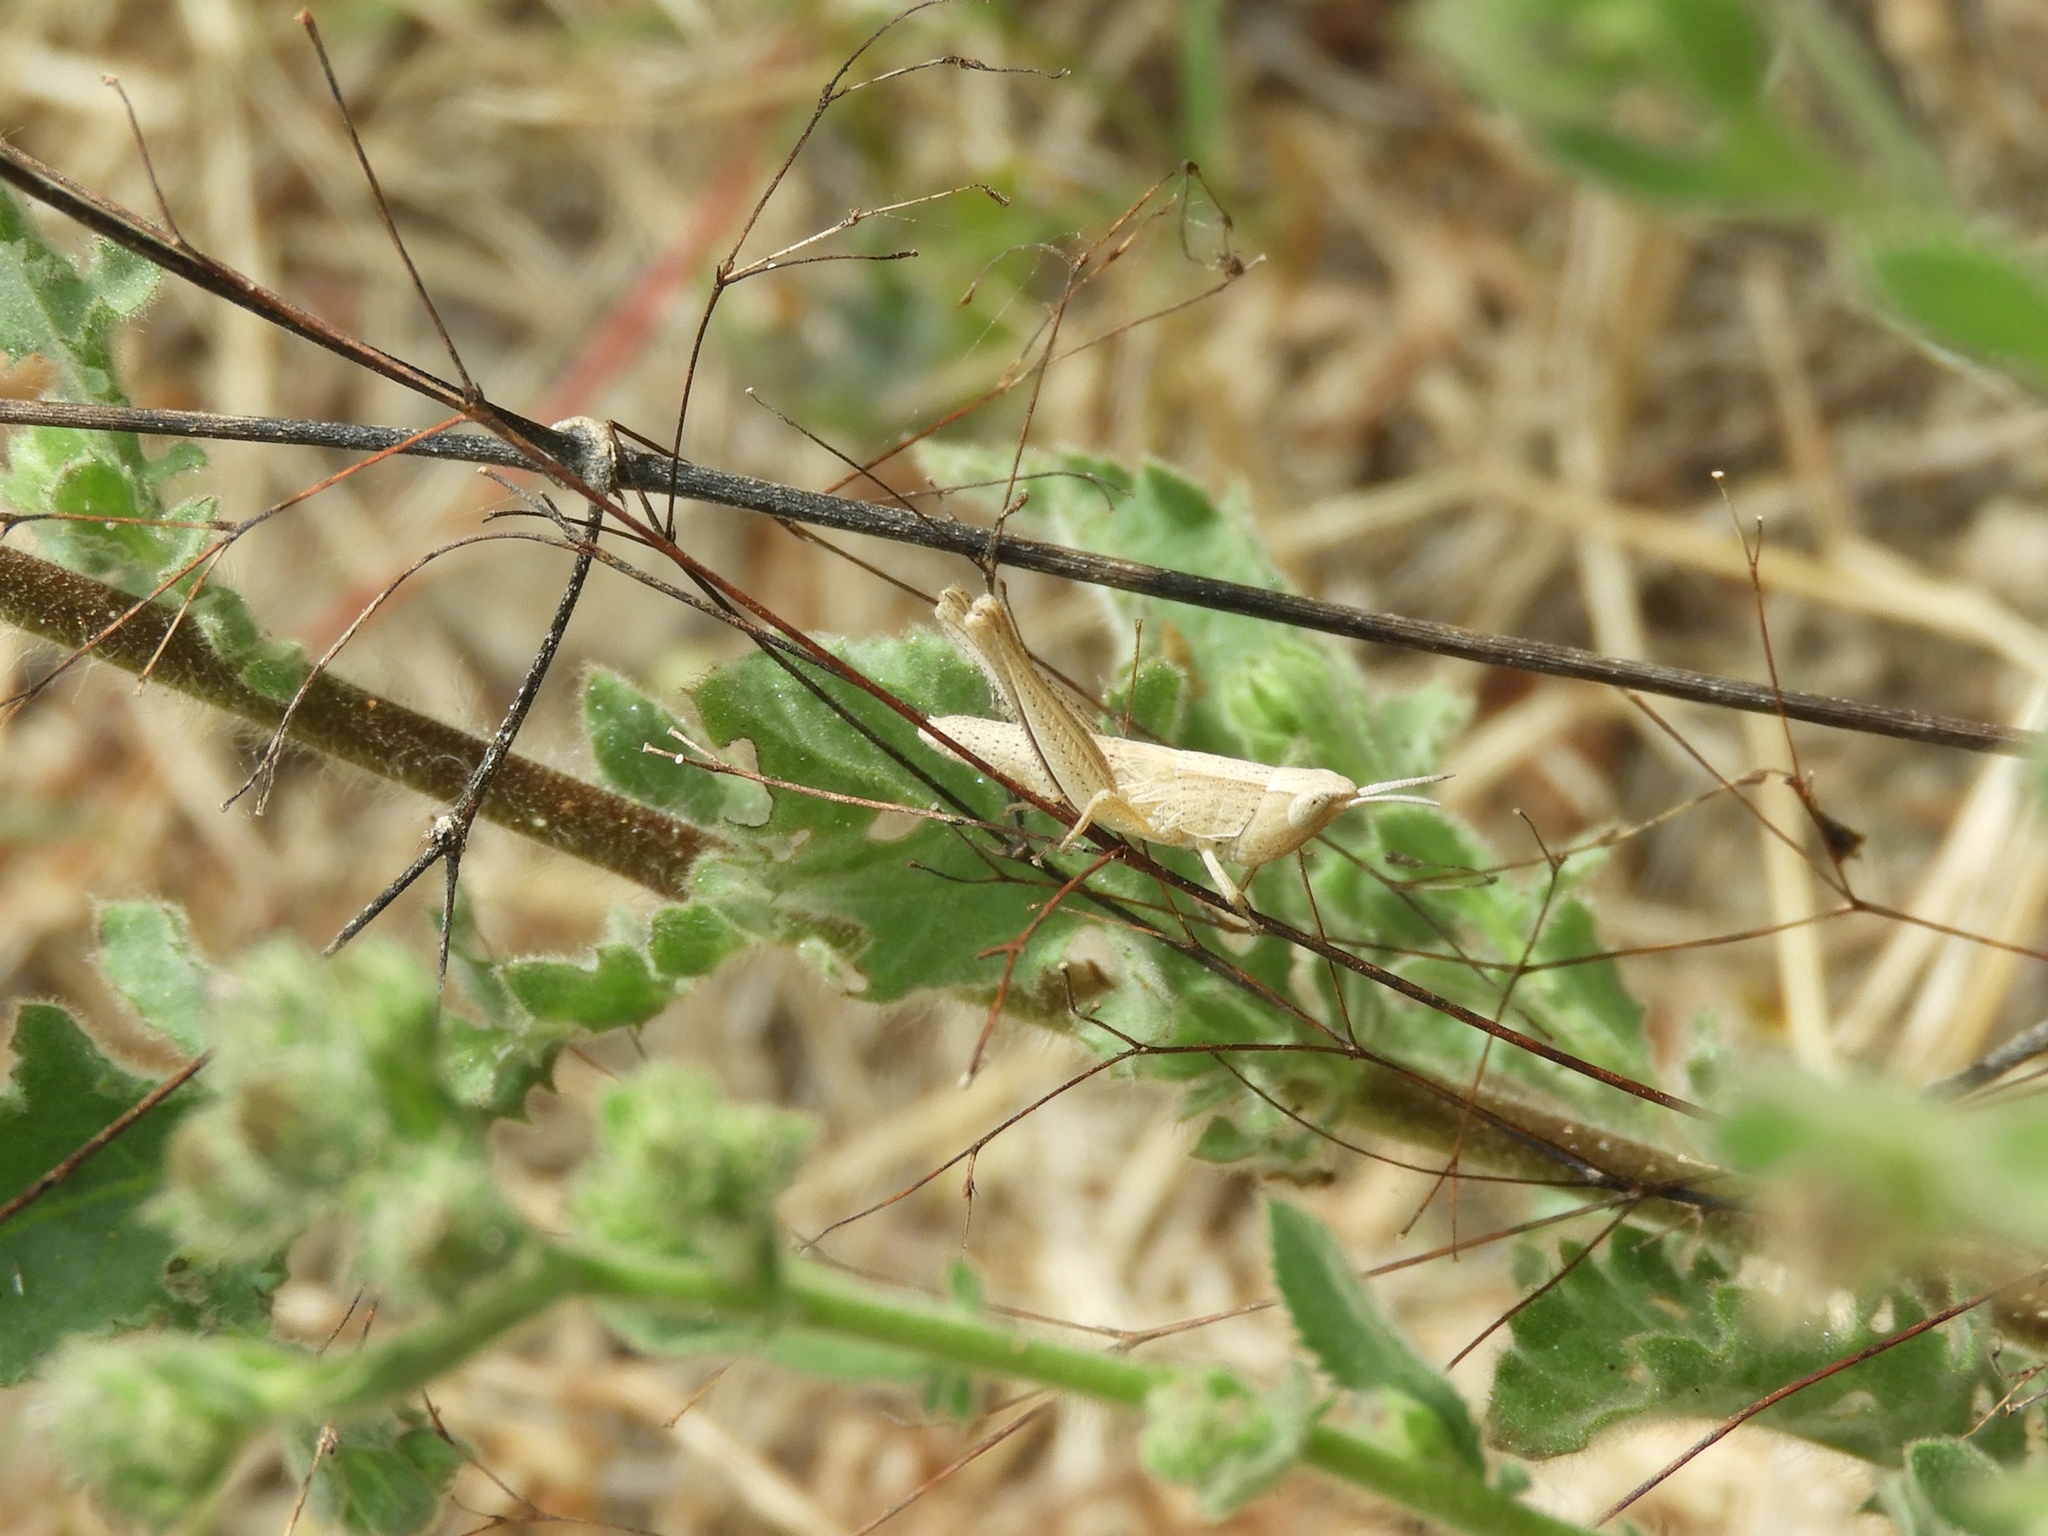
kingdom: Animalia
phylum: Arthropoda
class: Insecta
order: Orthoptera
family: Acrididae
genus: Dichromorpha
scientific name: Dichromorpha prominula
